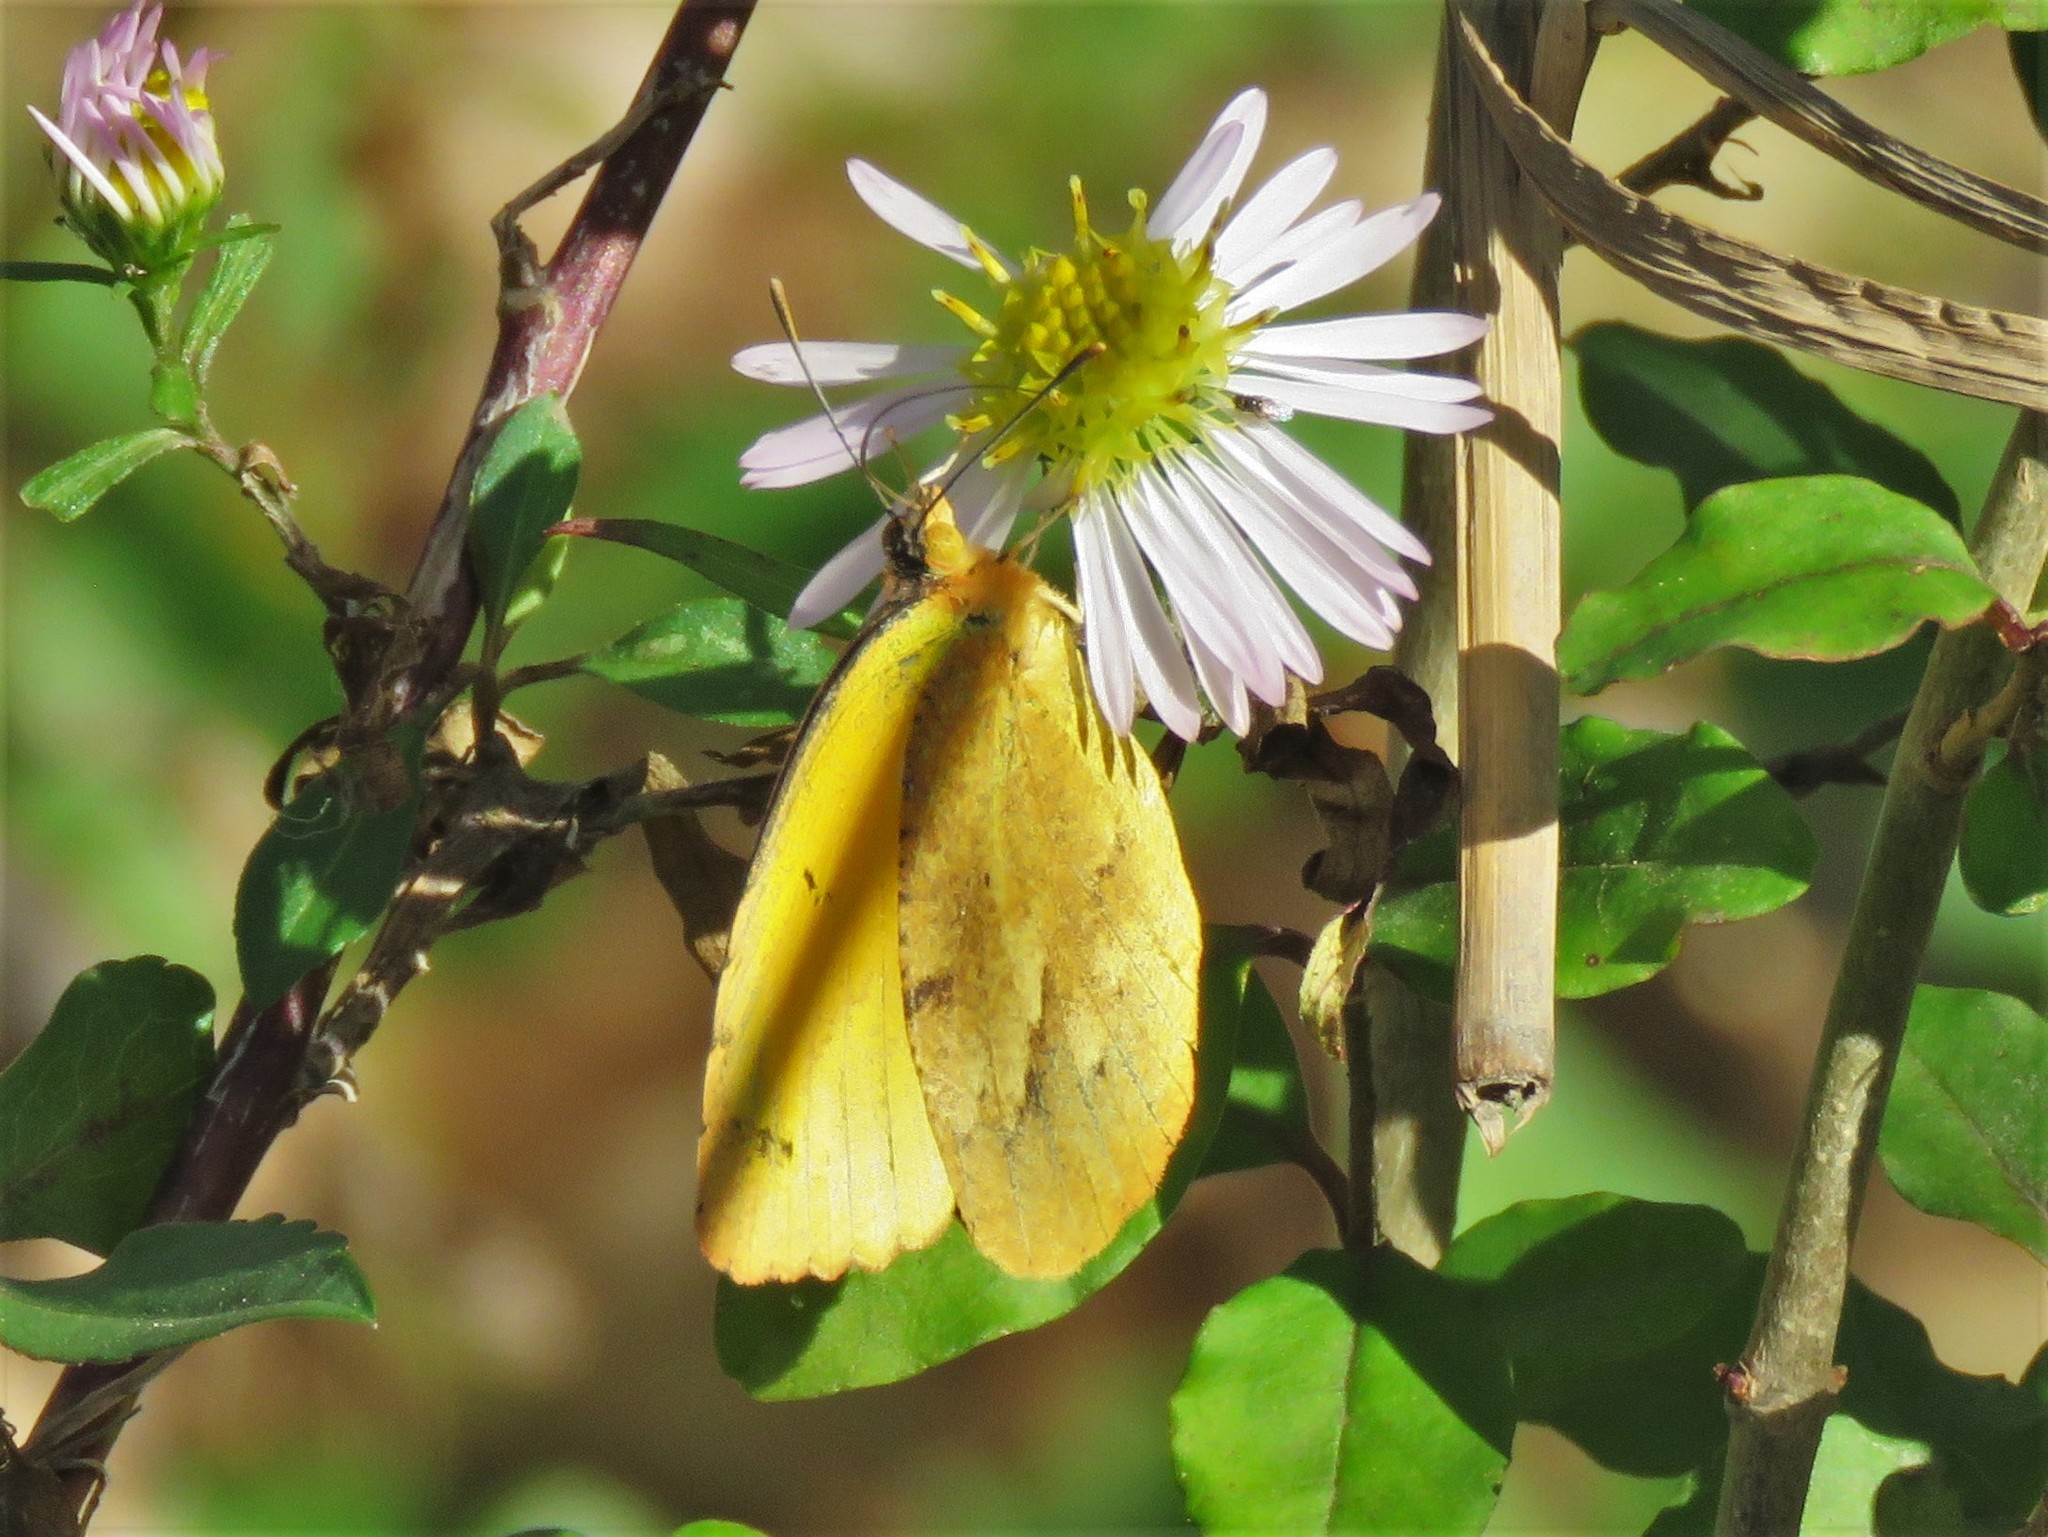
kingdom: Animalia
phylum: Arthropoda
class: Insecta
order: Lepidoptera
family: Pieridae
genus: Abaeis
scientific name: Abaeis nicippe
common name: Sleepy orange
